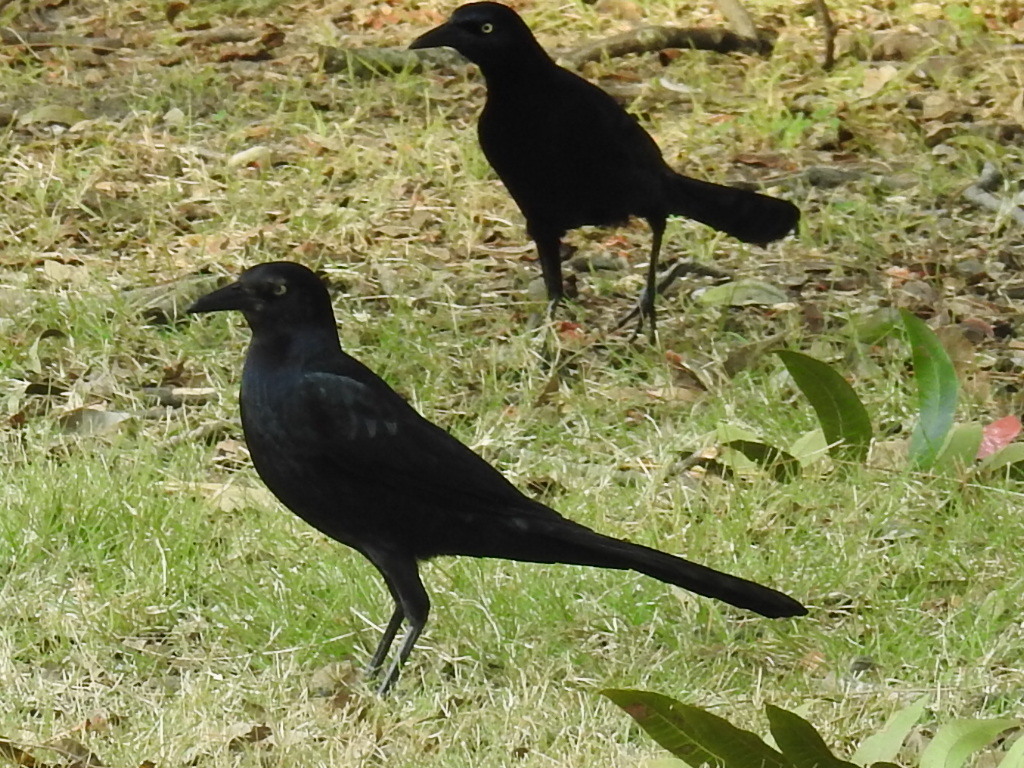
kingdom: Animalia
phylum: Chordata
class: Aves
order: Passeriformes
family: Icteridae
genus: Quiscalus
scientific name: Quiscalus mexicanus
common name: Great-tailed grackle
